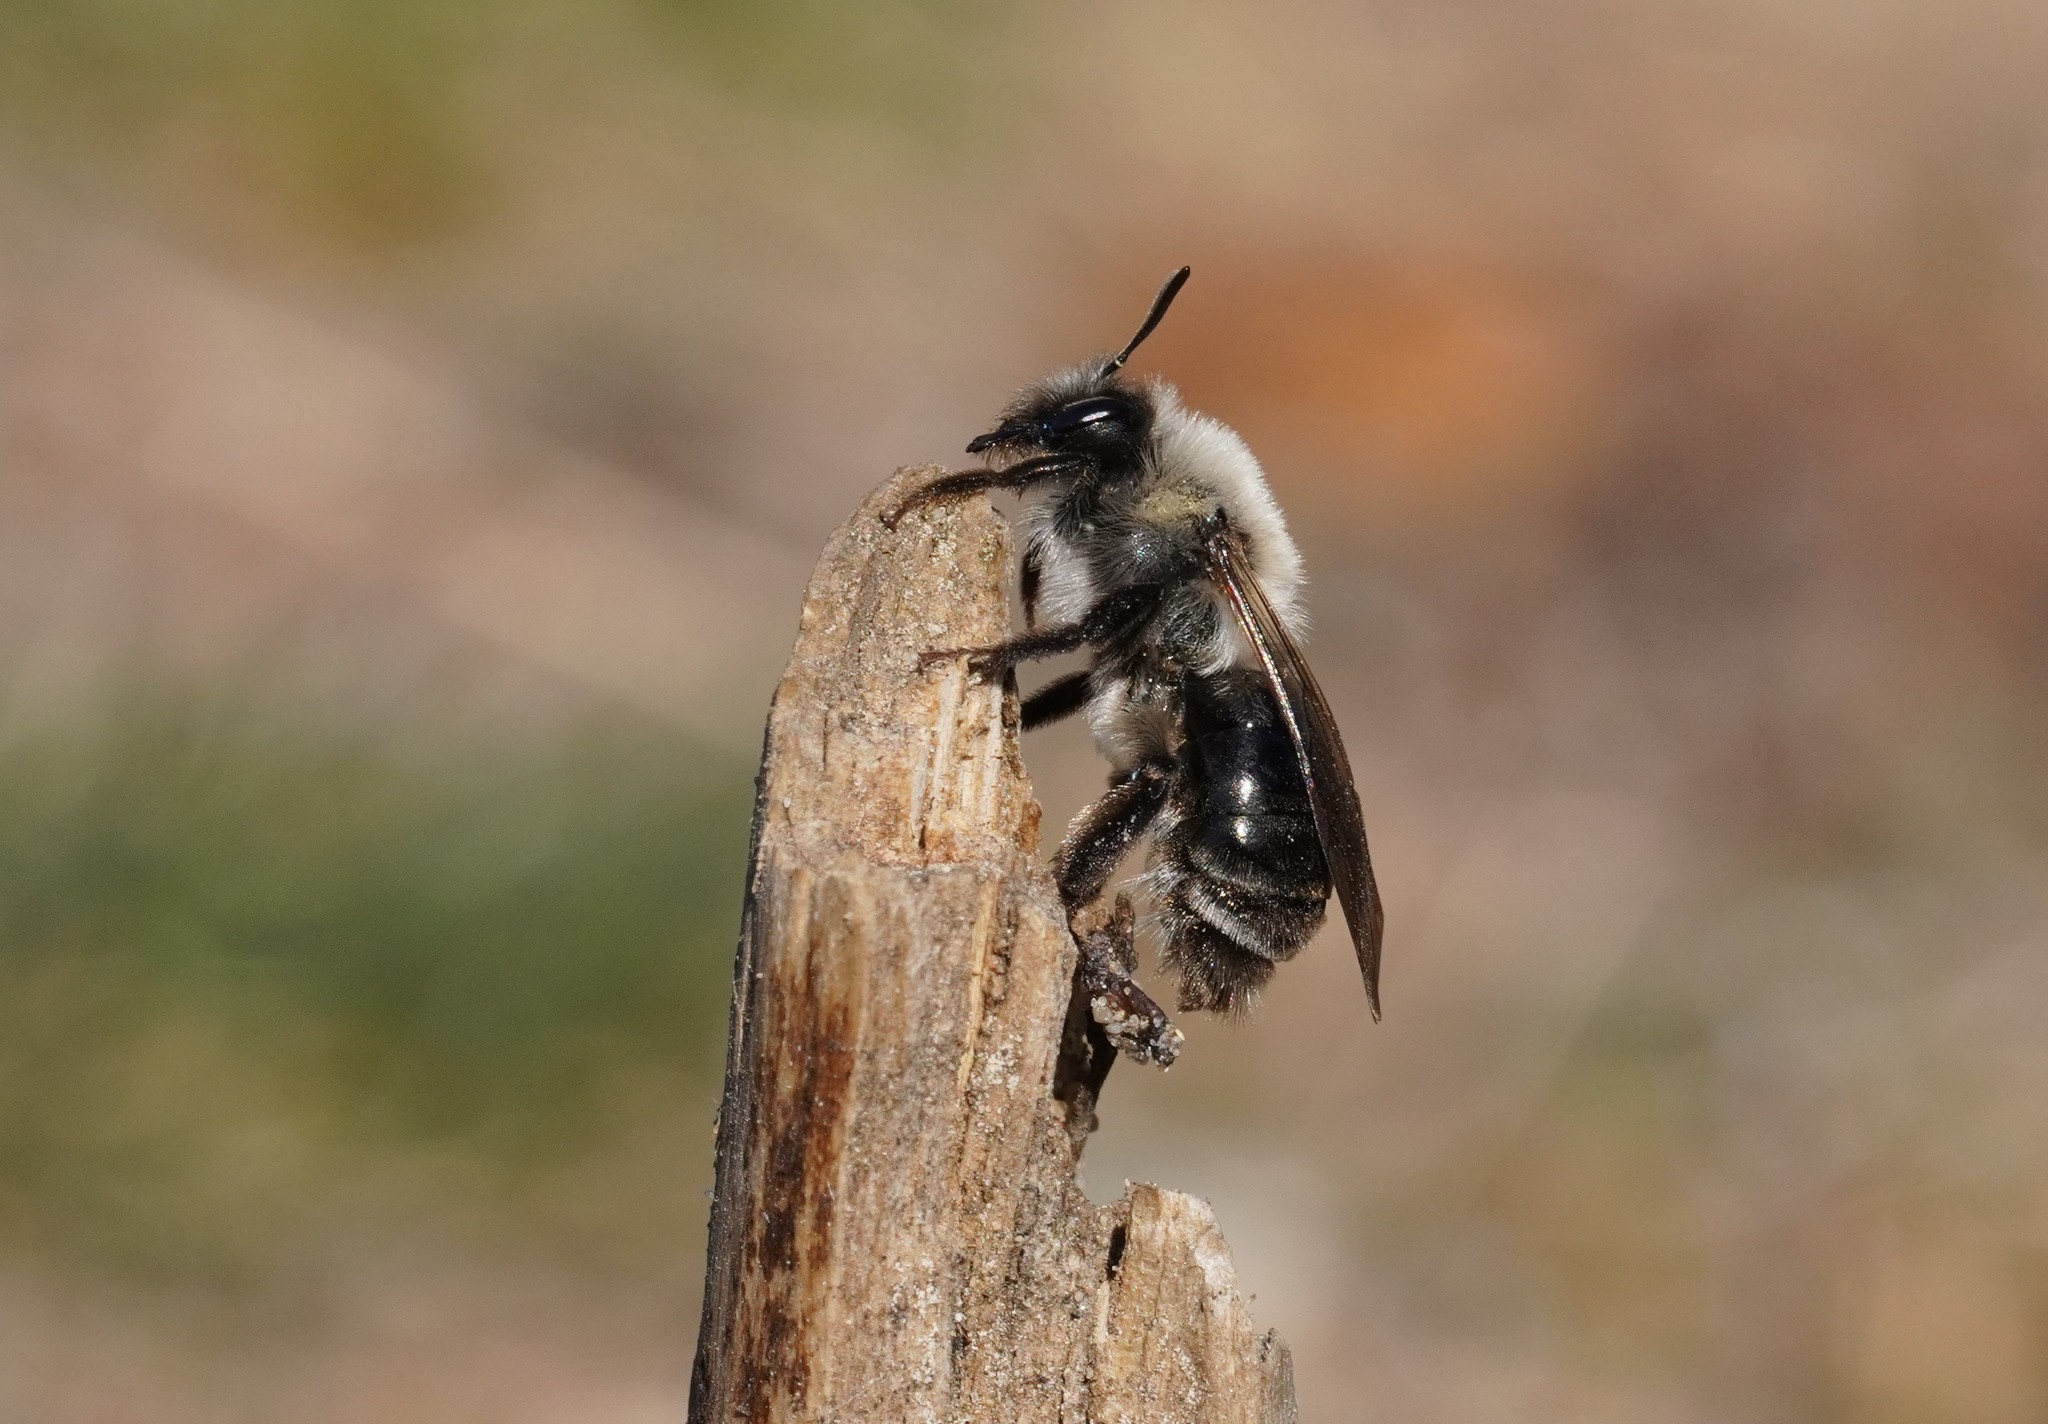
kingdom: Animalia
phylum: Arthropoda
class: Insecta
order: Hymenoptera
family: Andrenidae
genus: Andrena
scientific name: Andrena vaga
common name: Grey-backed mining bee
